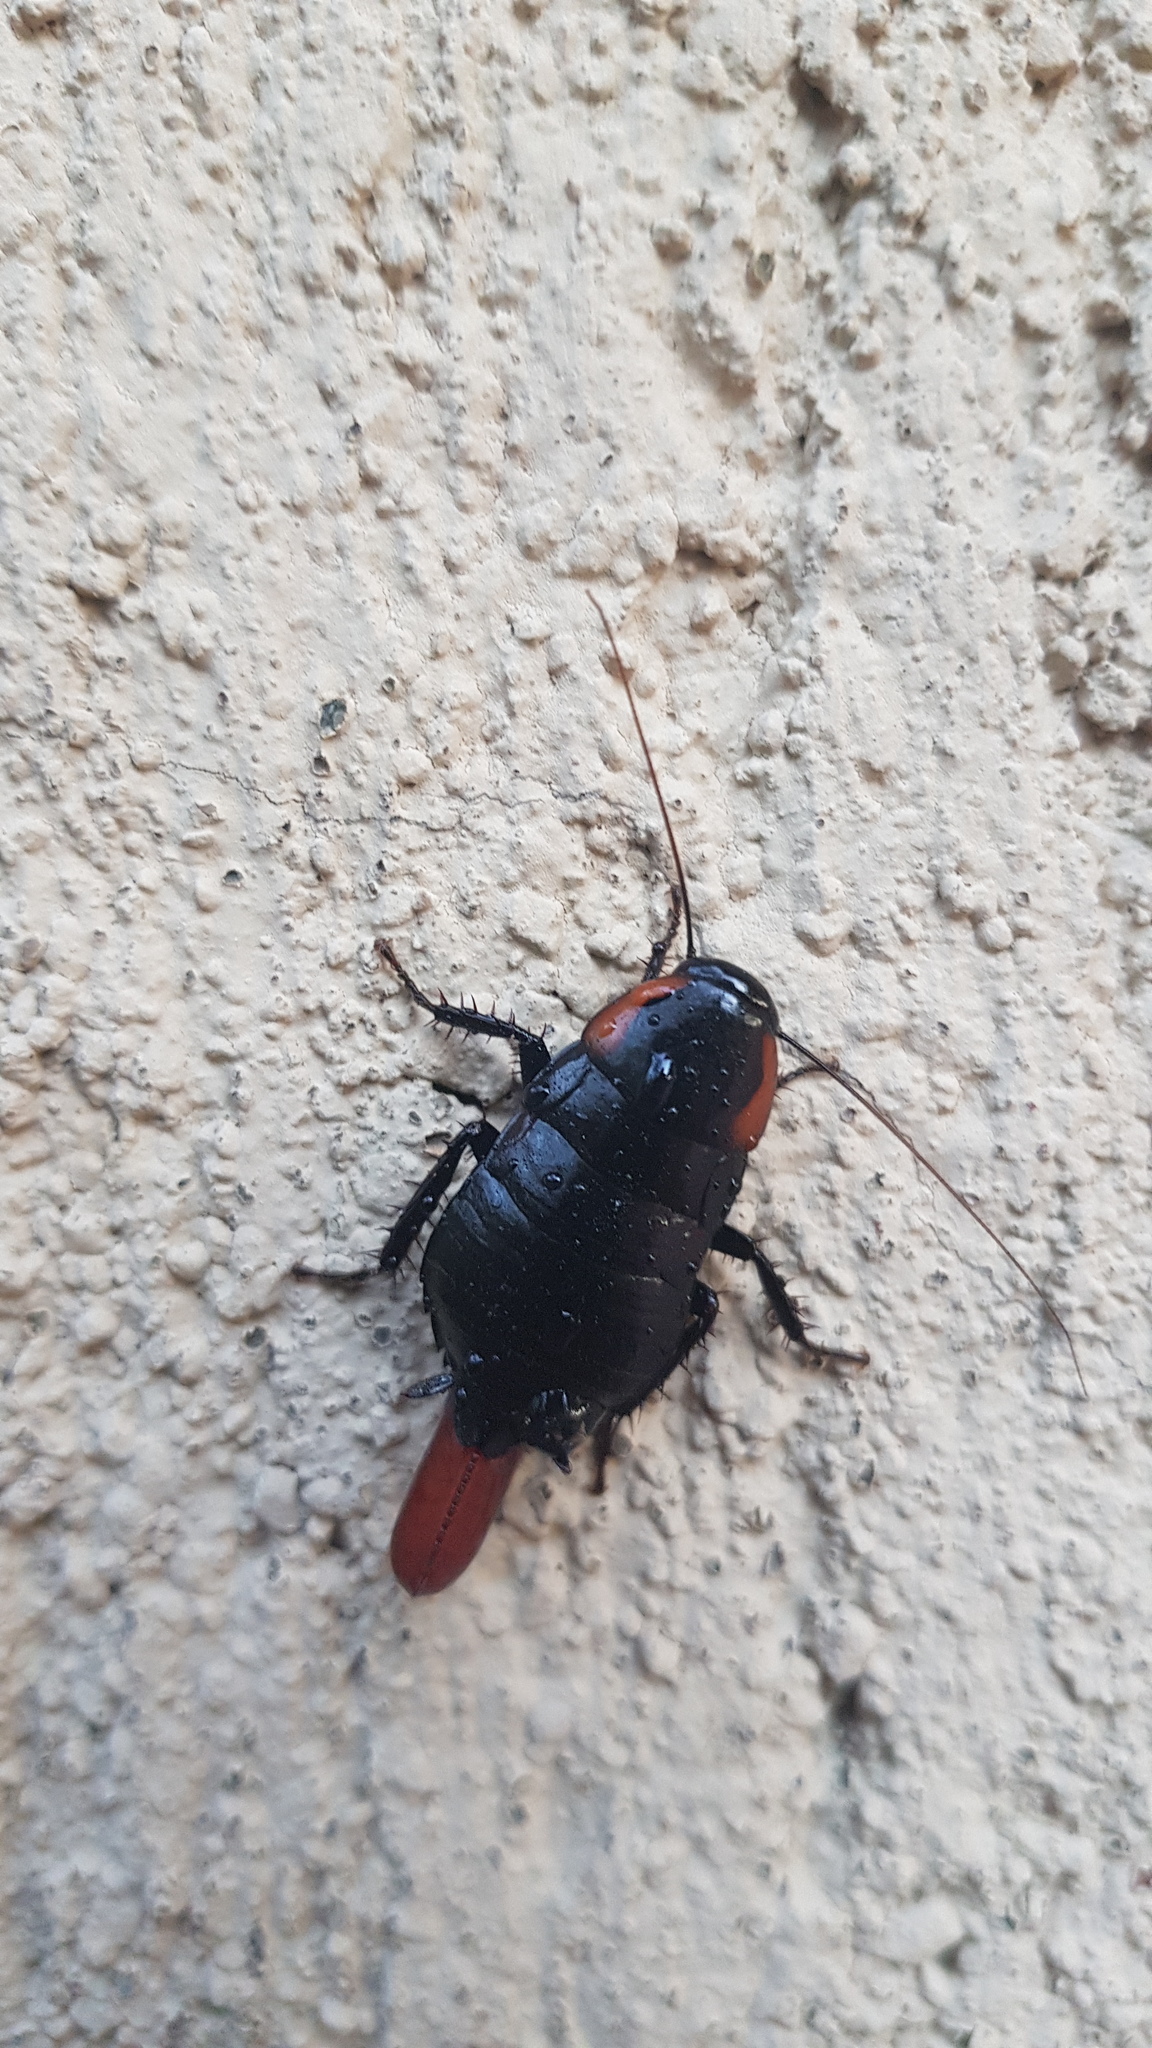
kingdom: Animalia
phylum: Arthropoda
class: Insecta
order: Blattodea
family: Blattidae
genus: Eurycotis
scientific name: Eurycotis mysteca
